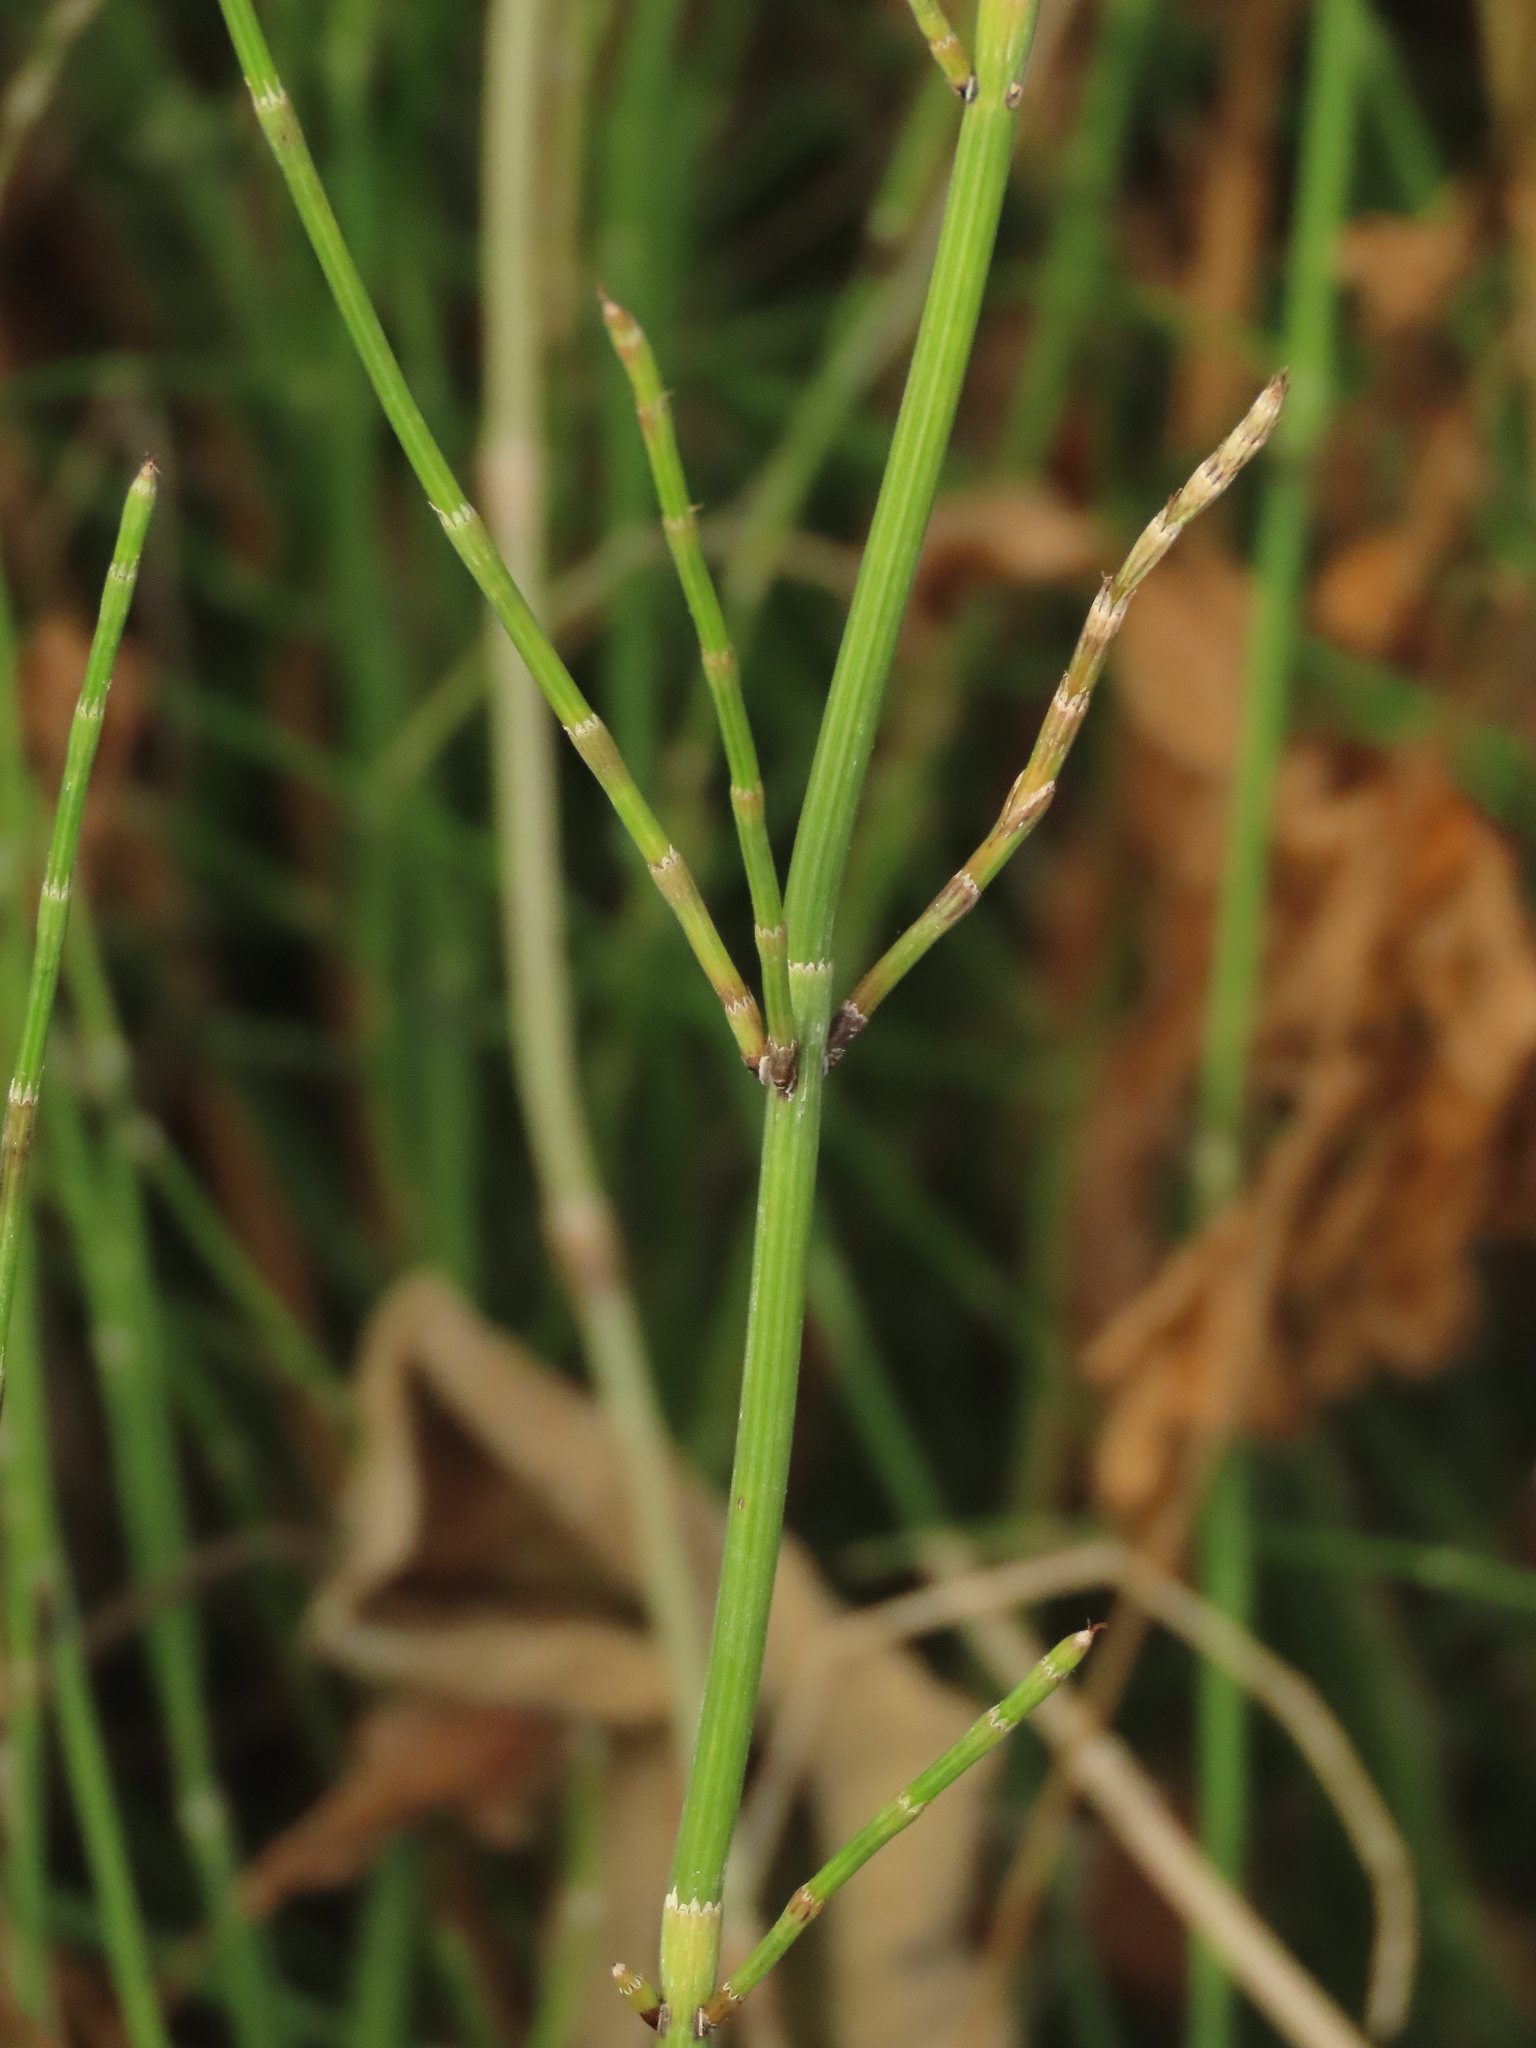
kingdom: Plantae
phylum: Tracheophyta
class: Polypodiopsida
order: Equisetales
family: Equisetaceae
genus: Equisetum
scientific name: Equisetum ramosissimum
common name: Branched horsetail
